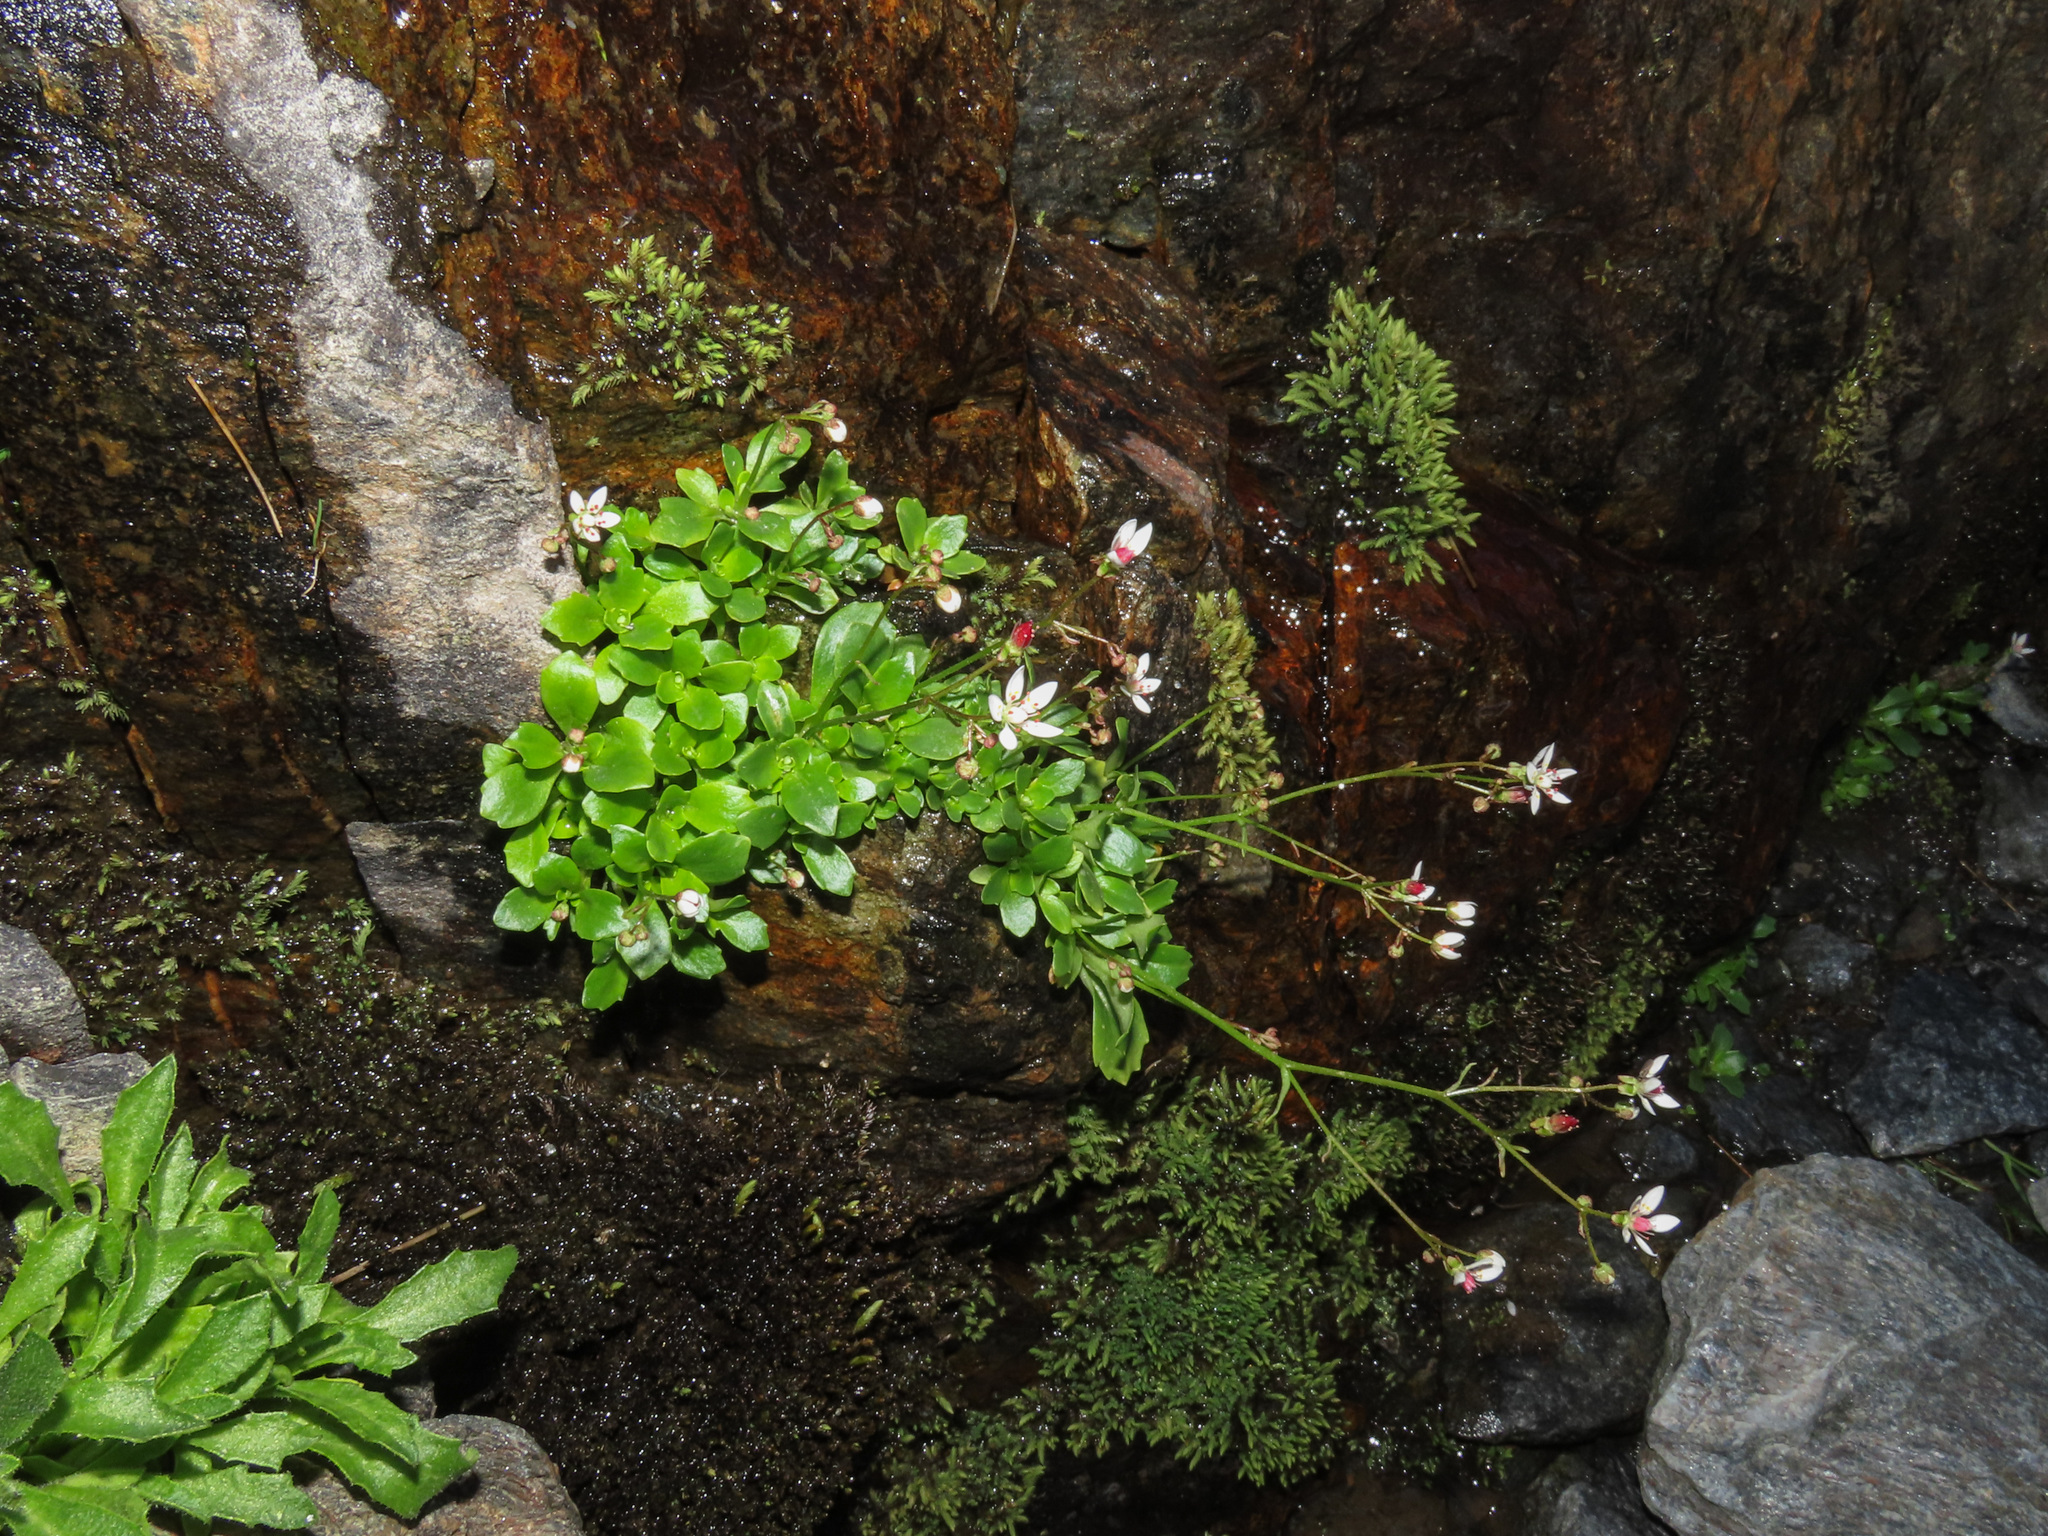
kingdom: Plantae
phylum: Tracheophyta
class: Magnoliopsida
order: Saxifragales
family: Saxifragaceae
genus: Micranthes
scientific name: Micranthes stellaris
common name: Starry saxifrage
